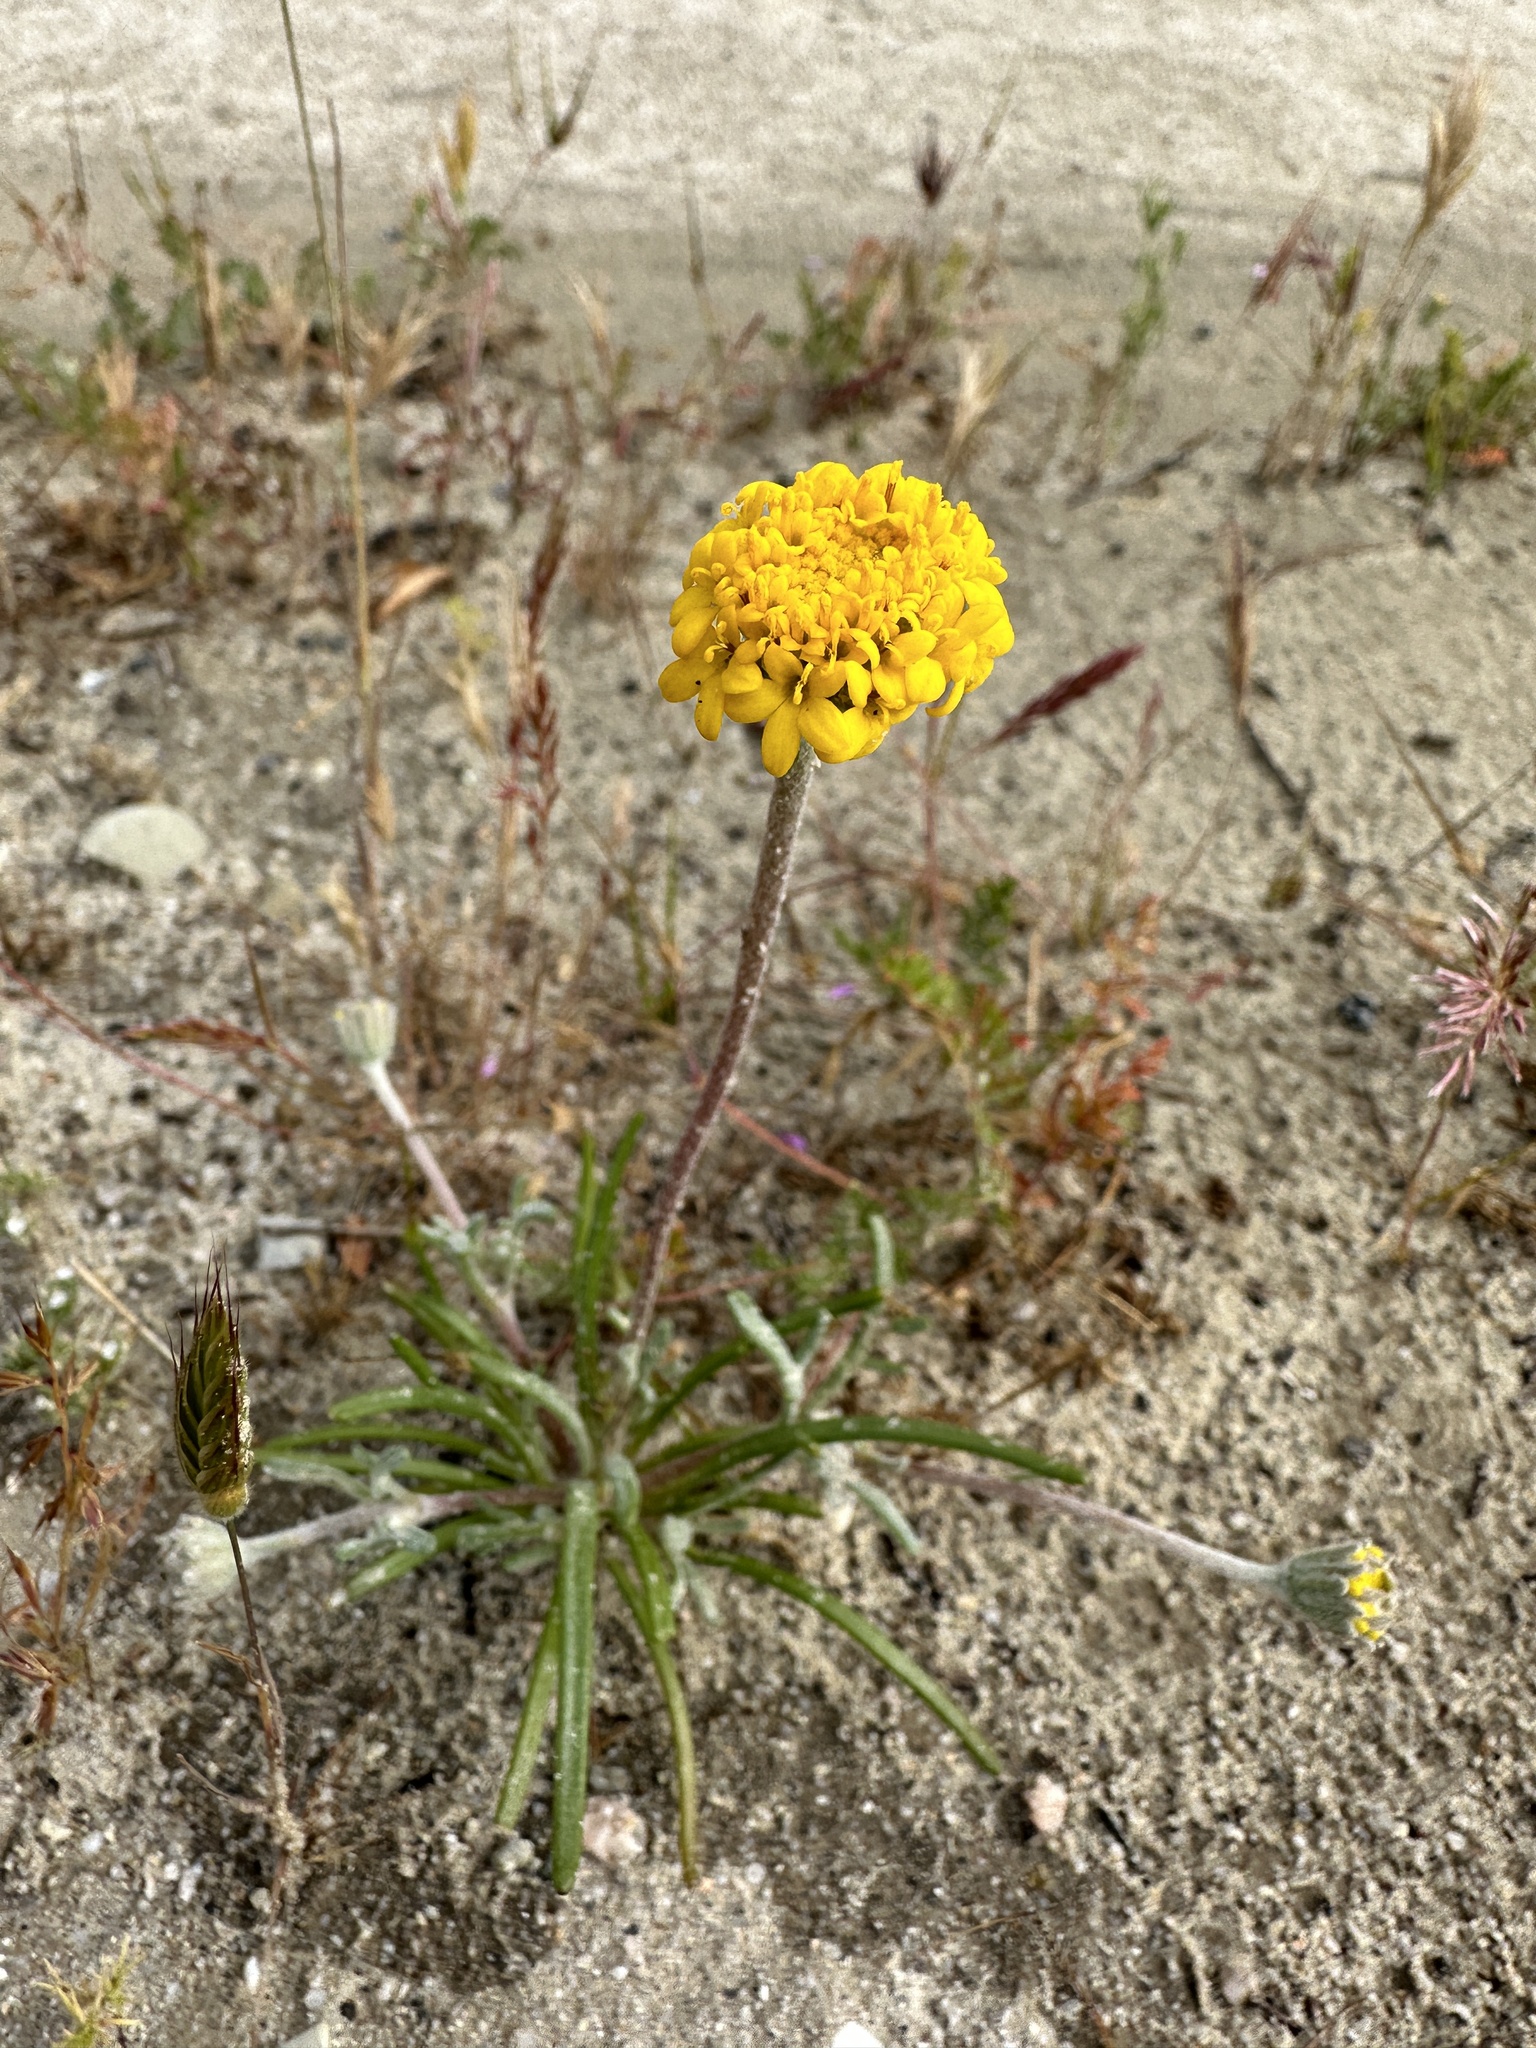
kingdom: Plantae
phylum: Tracheophyta
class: Magnoliopsida
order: Asterales
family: Asteraceae
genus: Chaenactis
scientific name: Chaenactis glabriuscula
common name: Yellow pincushion
